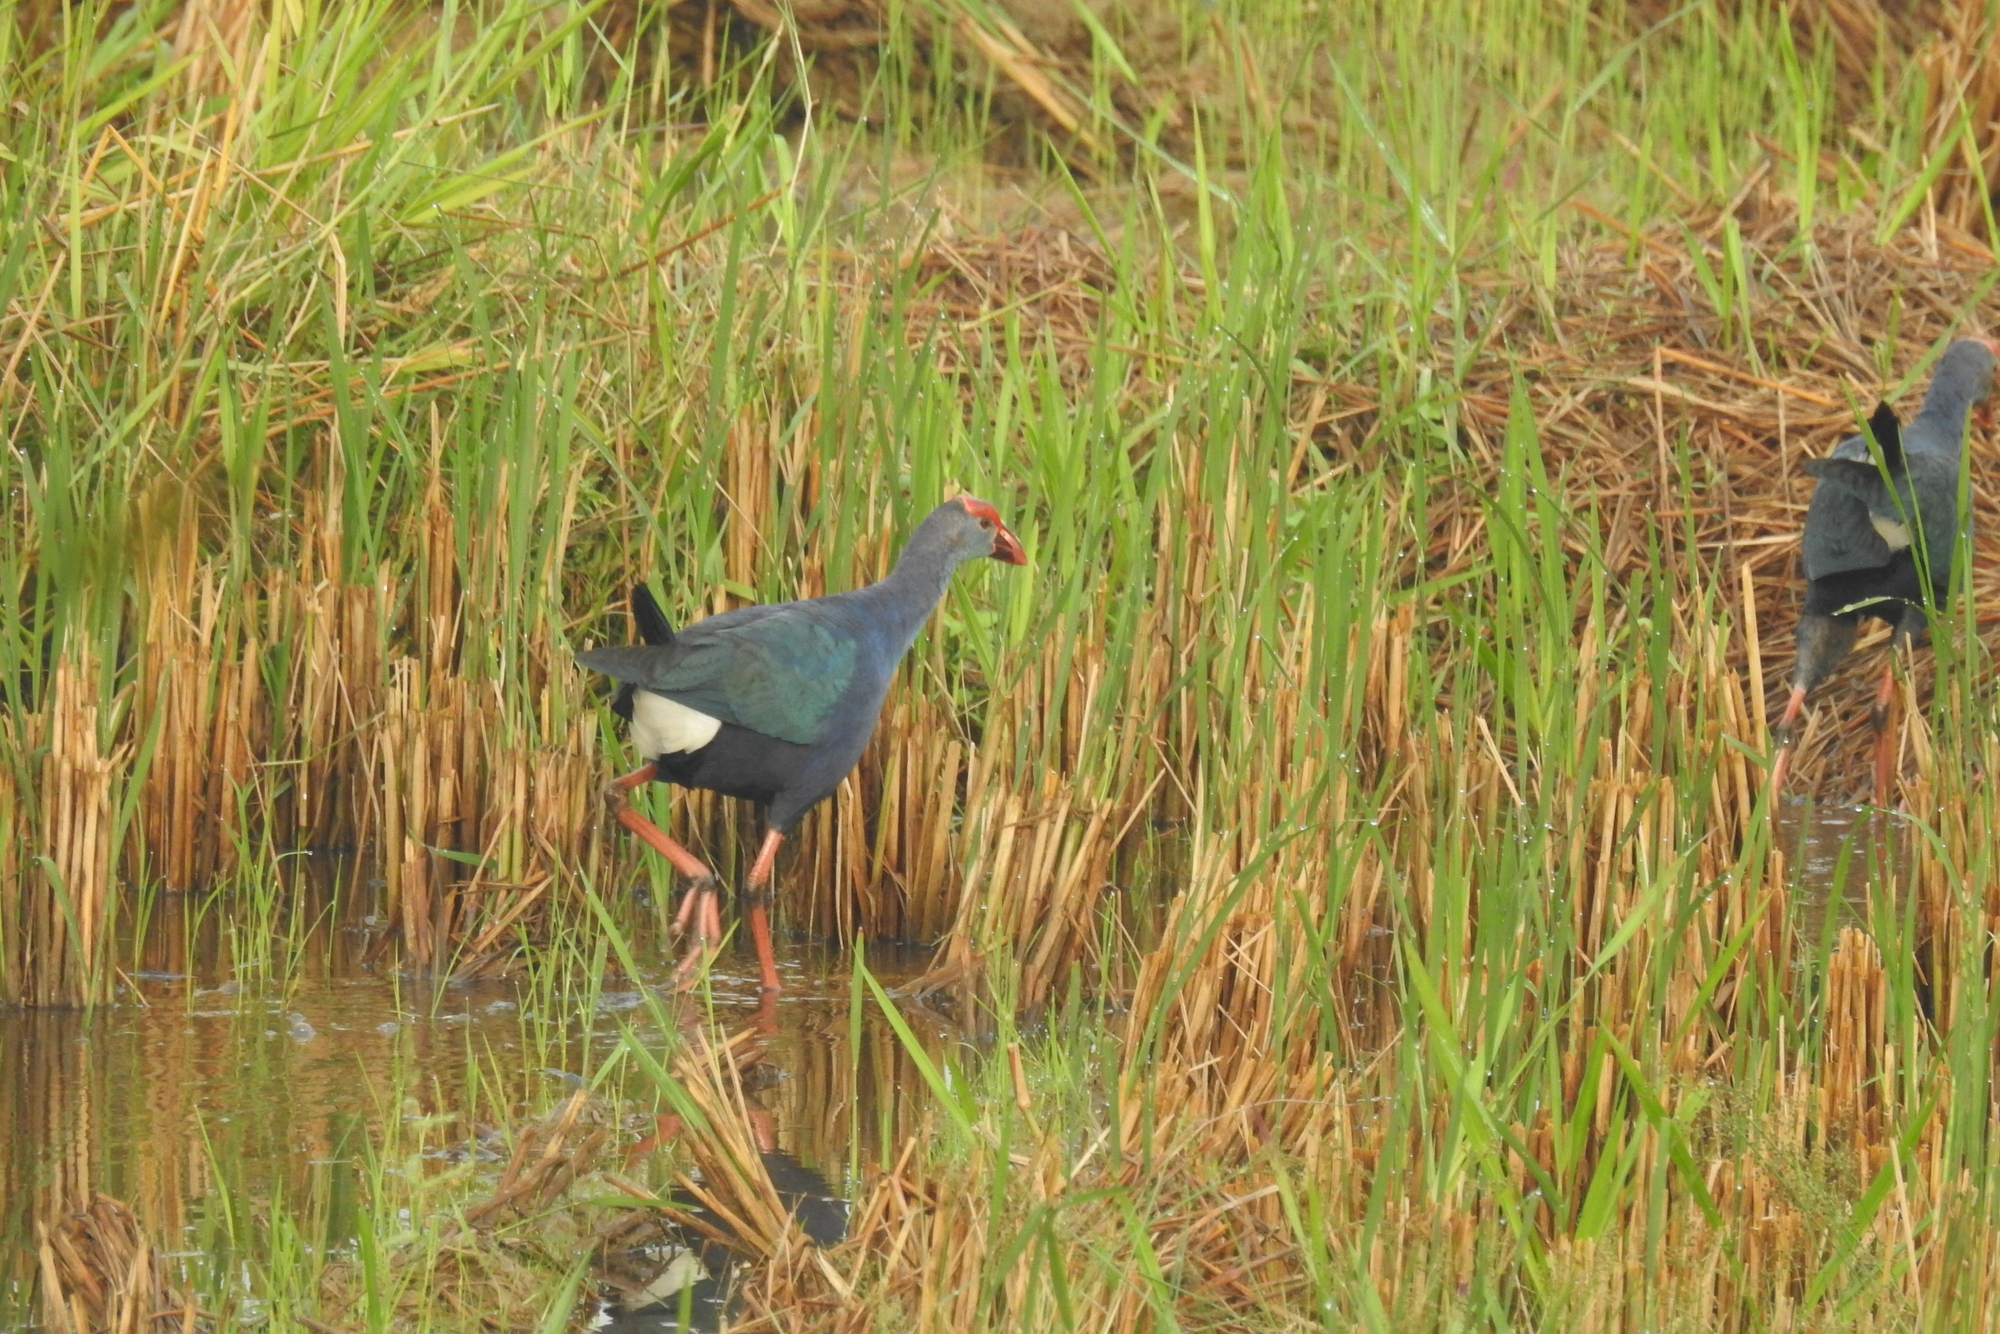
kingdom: Animalia
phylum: Chordata
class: Aves
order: Gruiformes
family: Rallidae
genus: Porphyrio
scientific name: Porphyrio porphyrio
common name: Purple swamphen
